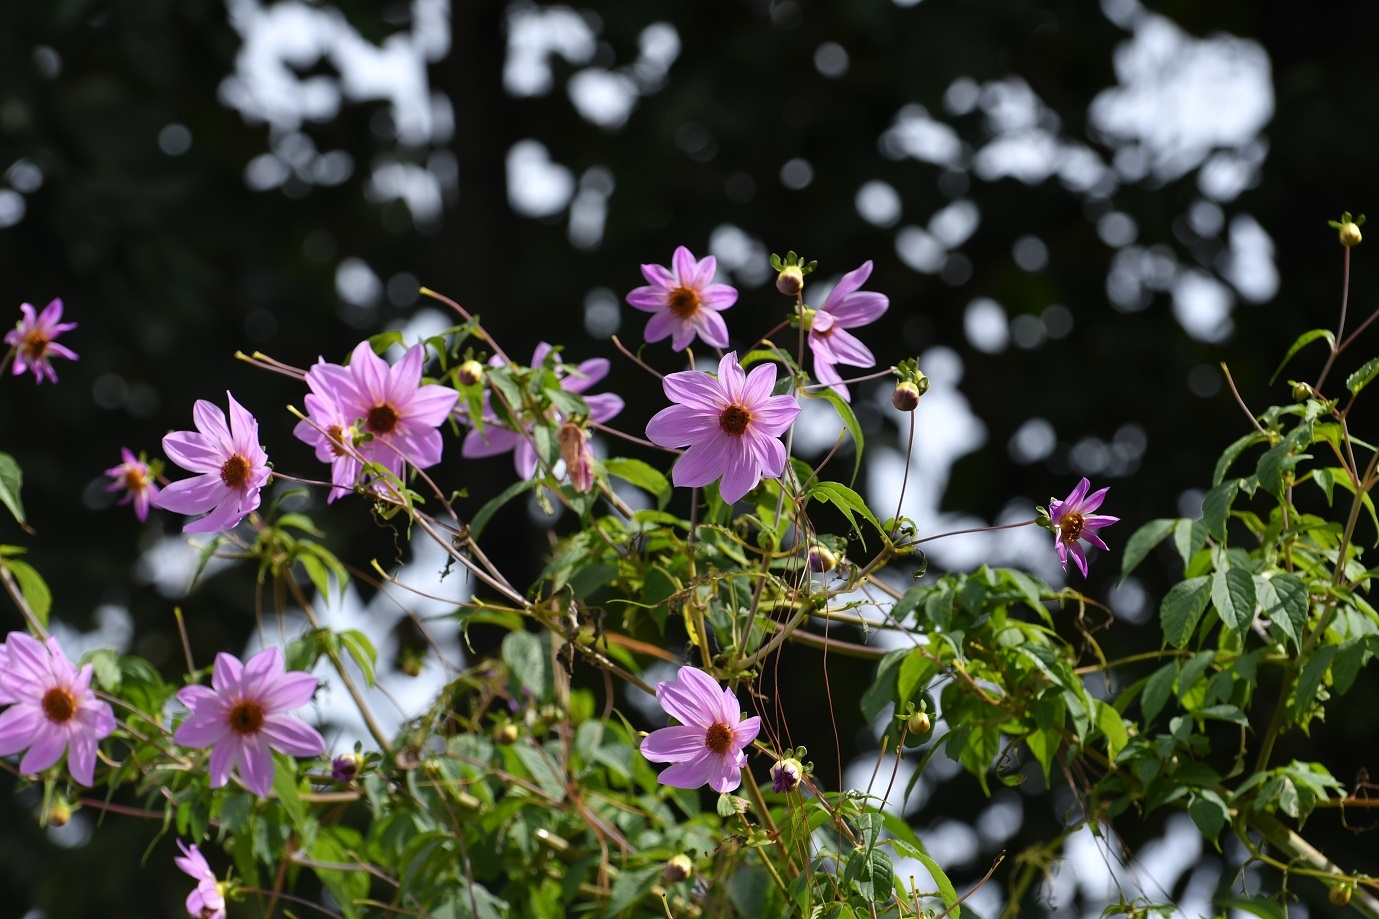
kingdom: Plantae
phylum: Tracheophyta
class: Magnoliopsida
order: Asterales
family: Asteraceae
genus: Dahlia
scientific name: Dahlia imperialis
